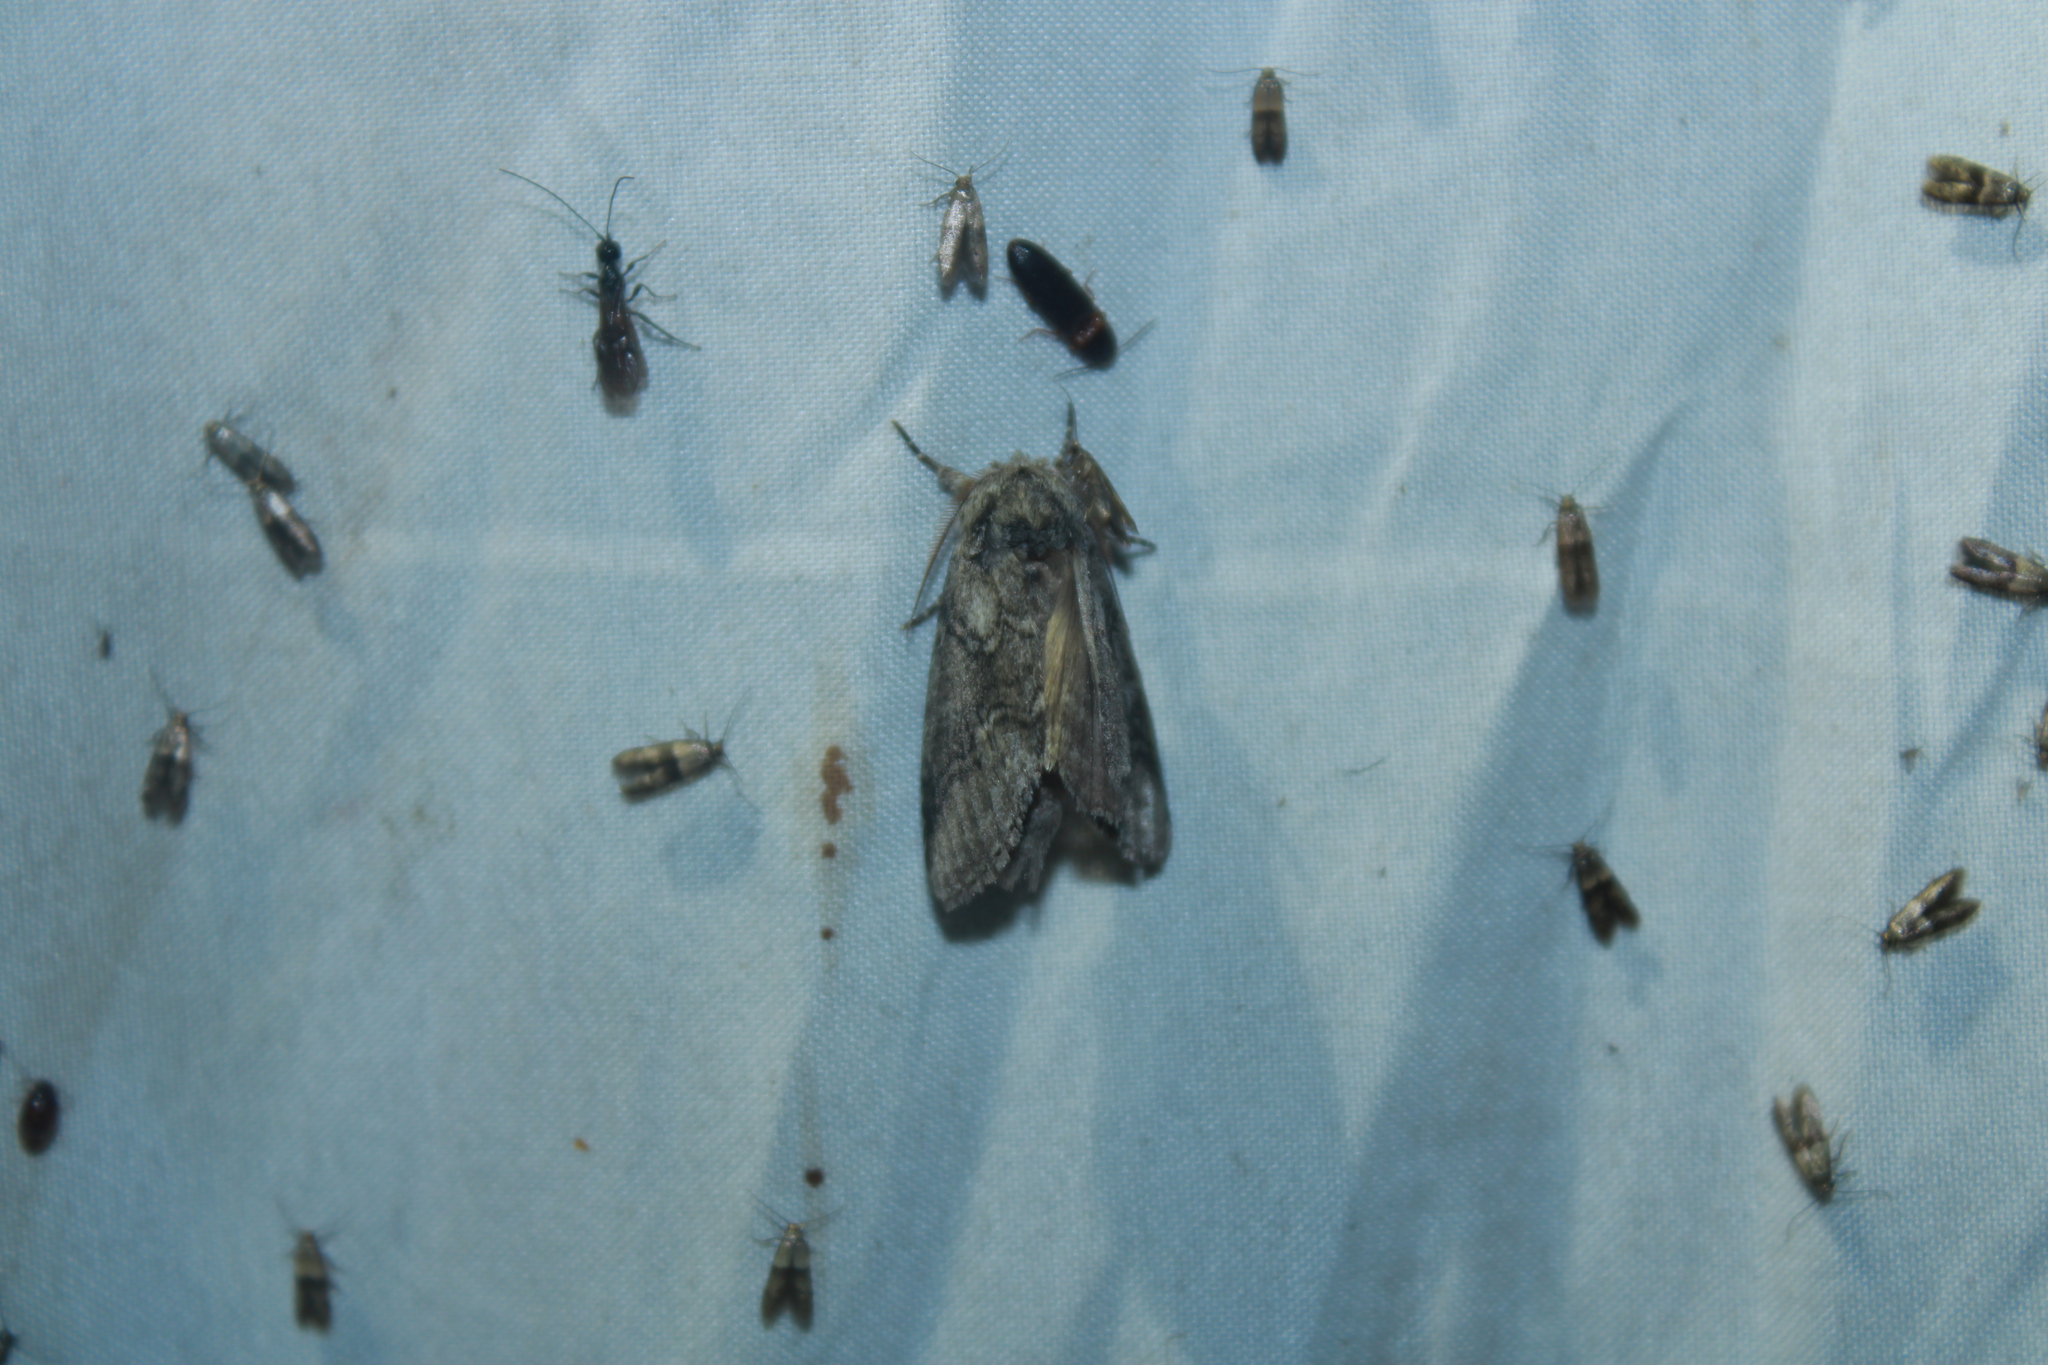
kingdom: Animalia
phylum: Arthropoda
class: Insecta
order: Lepidoptera
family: Notodontidae
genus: Lochmaeus
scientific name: Lochmaeus bilineata
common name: Double-lined prominent
